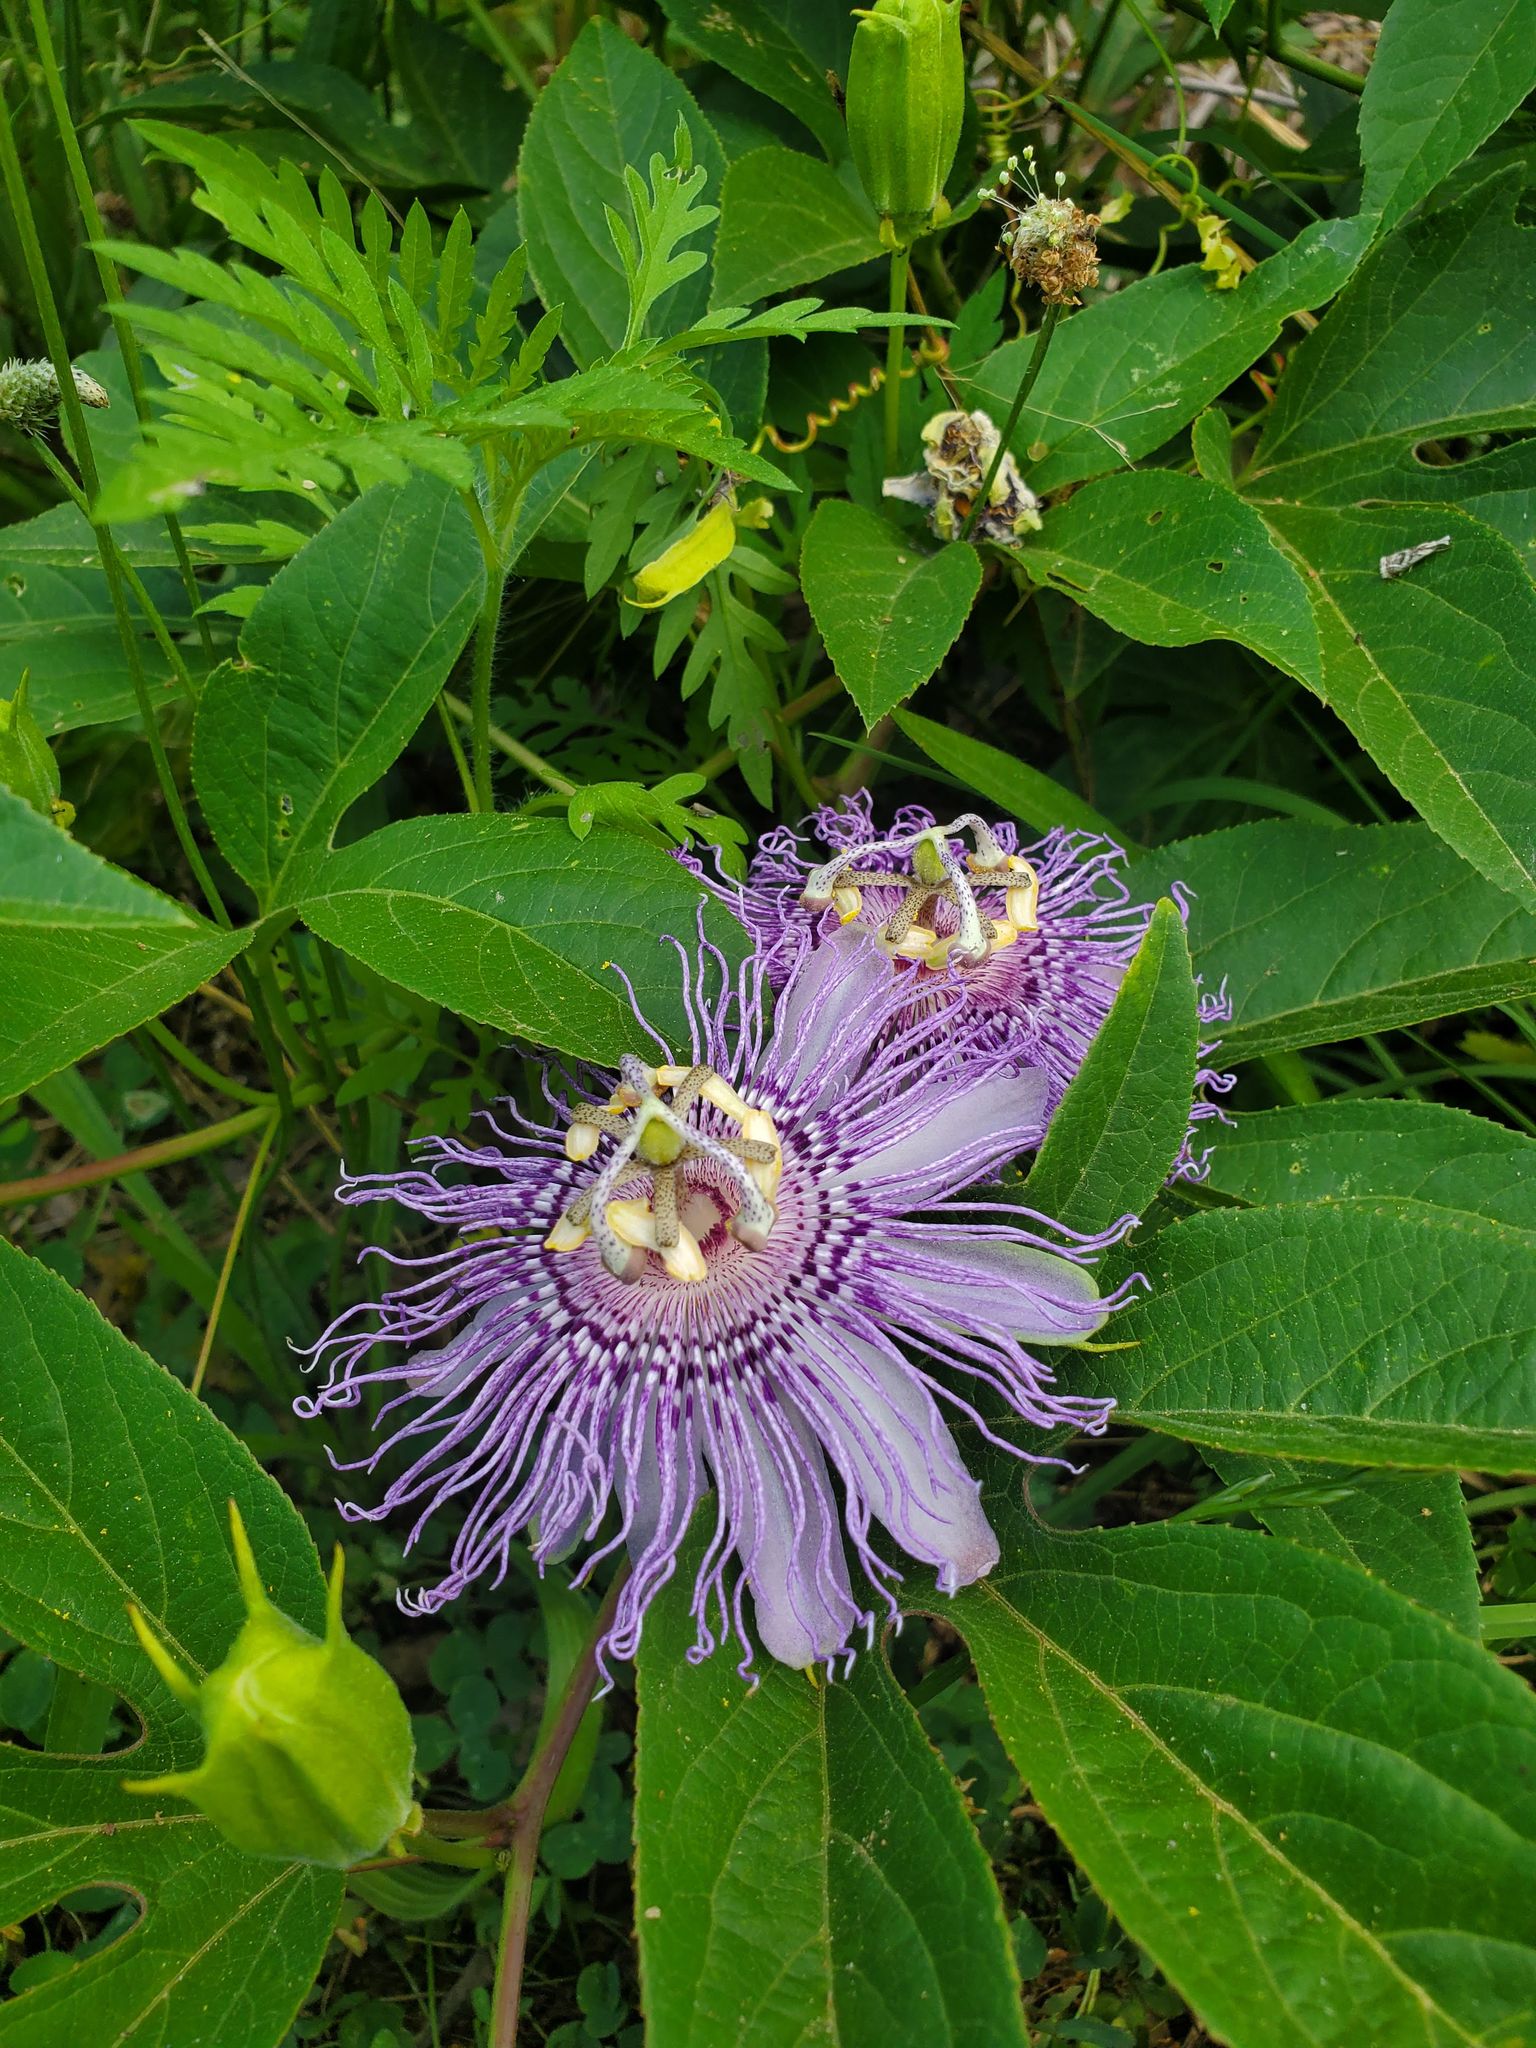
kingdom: Plantae
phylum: Tracheophyta
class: Magnoliopsida
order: Malpighiales
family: Passifloraceae
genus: Passiflora
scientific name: Passiflora incarnata
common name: Apricot-vine
